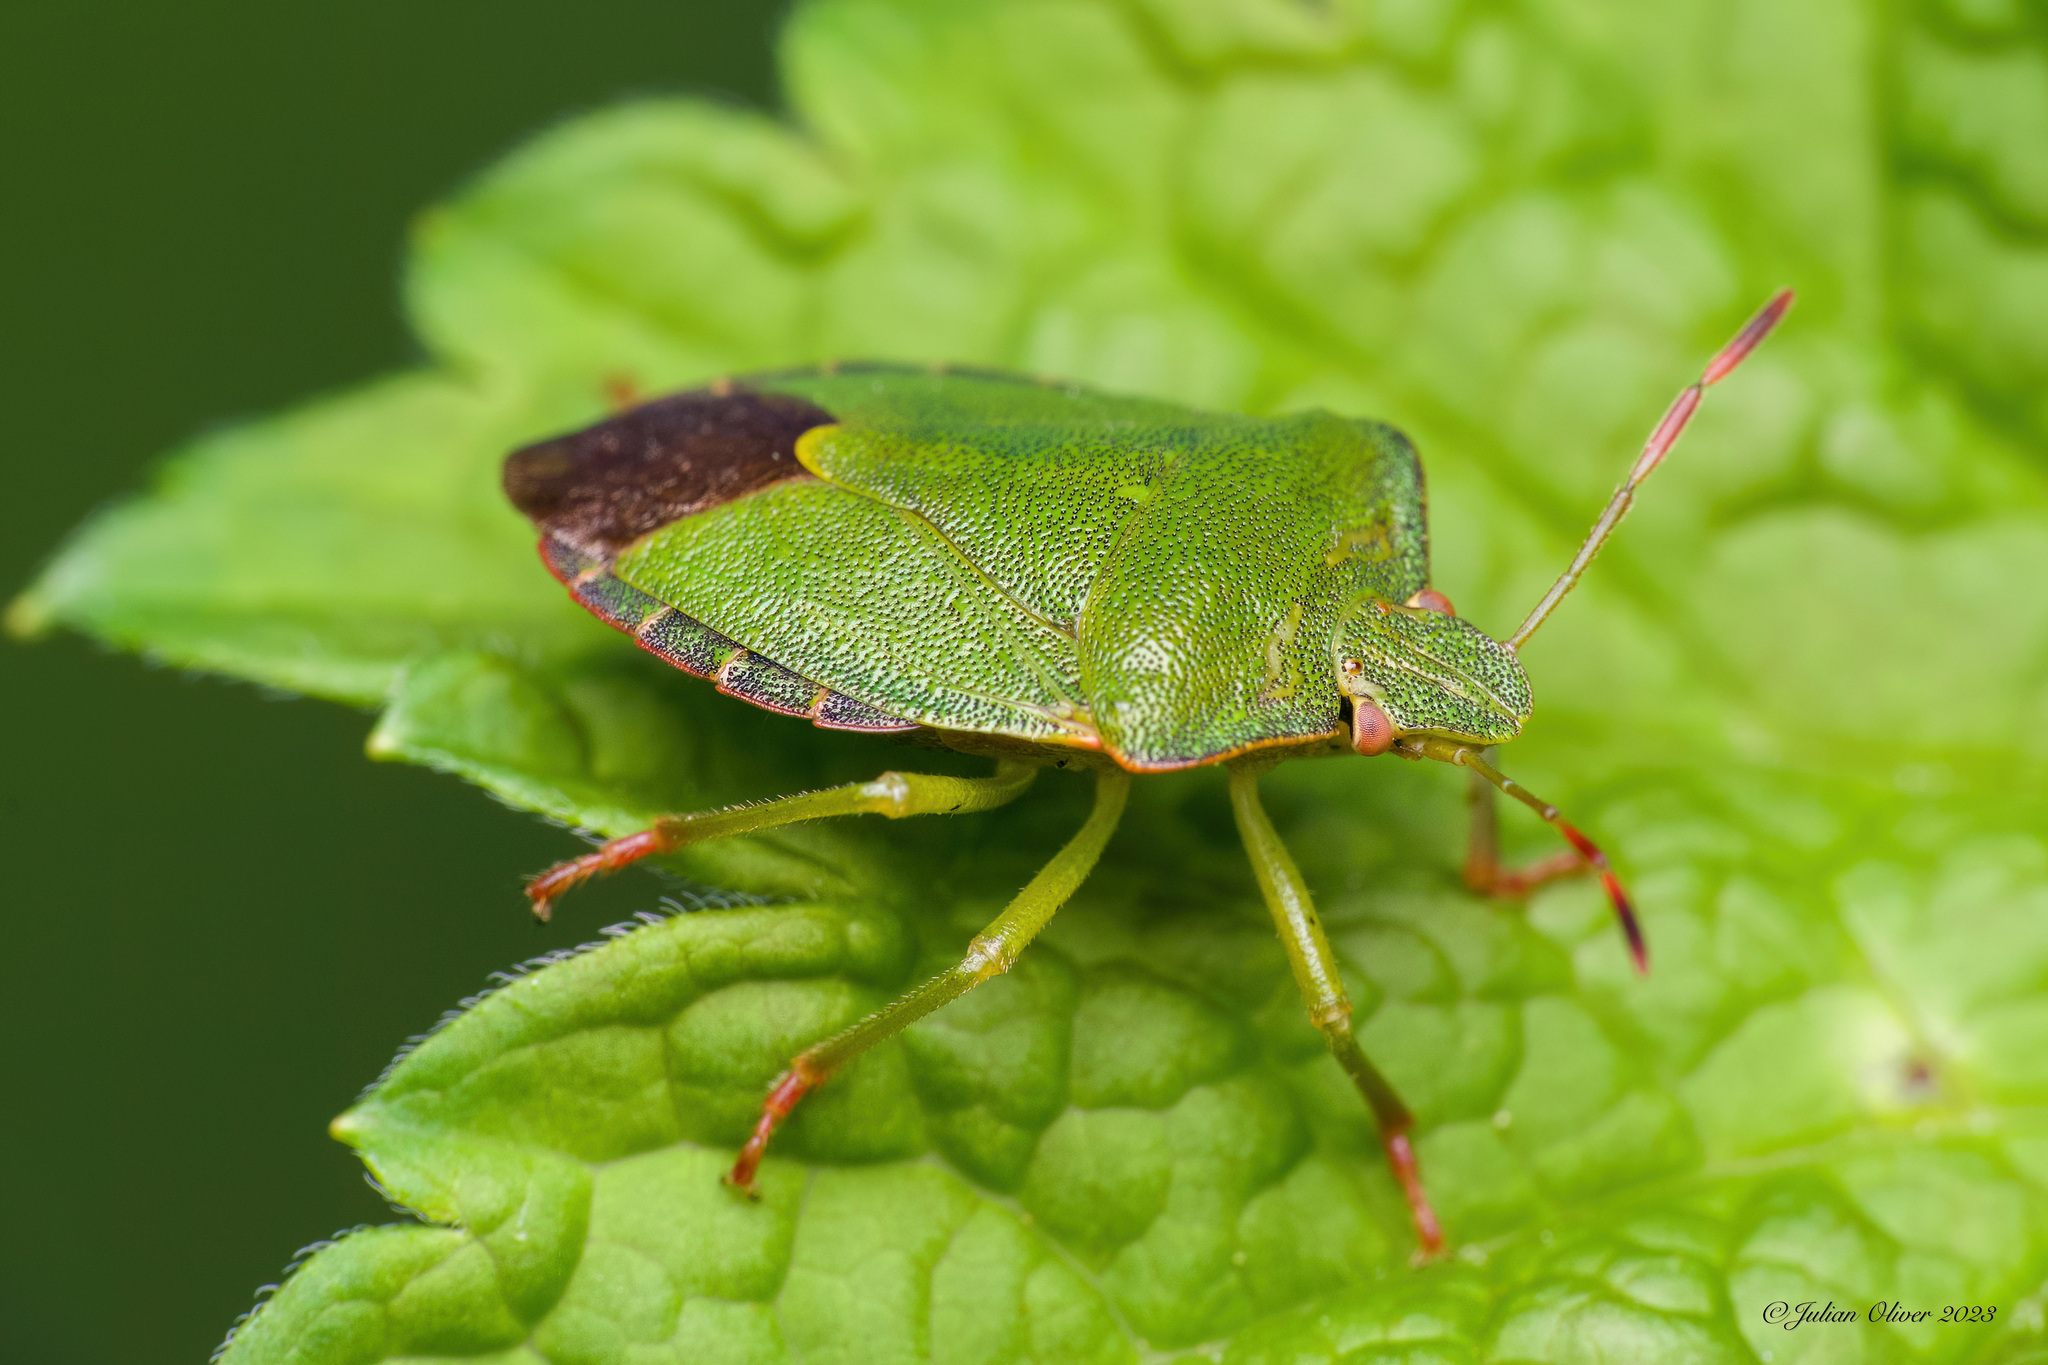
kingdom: Animalia
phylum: Arthropoda
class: Insecta
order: Hemiptera
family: Pentatomidae
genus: Palomena
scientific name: Palomena prasina
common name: Green shieldbug
